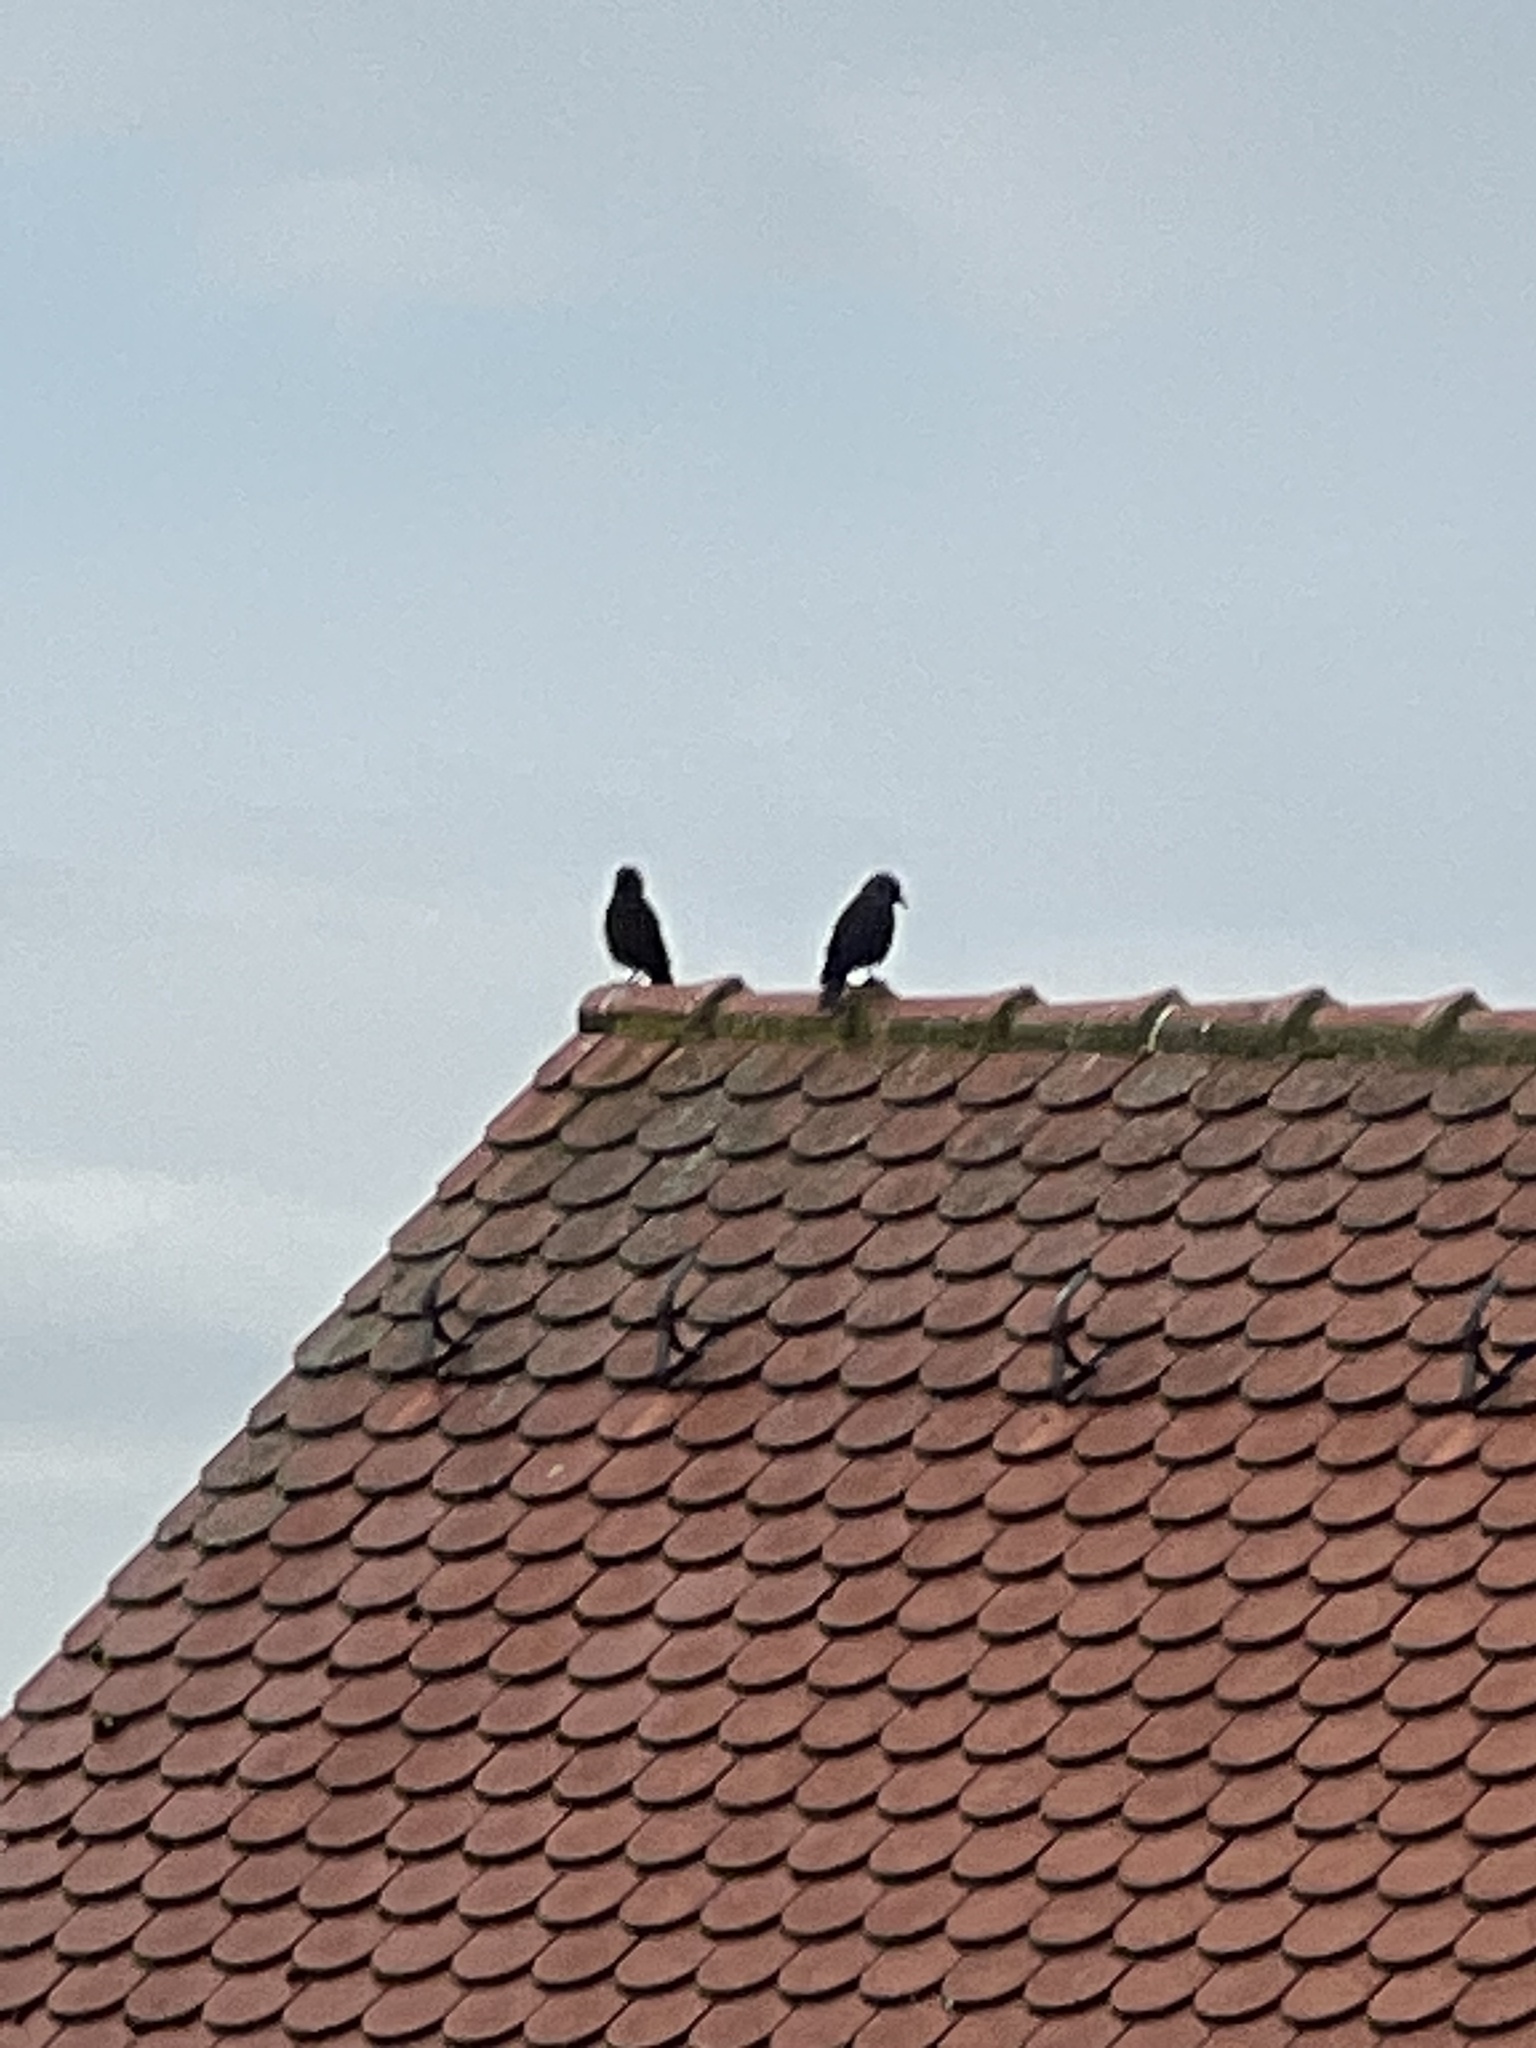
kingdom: Animalia
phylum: Chordata
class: Aves
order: Passeriformes
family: Corvidae
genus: Coloeus
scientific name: Coloeus monedula
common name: Western jackdaw
